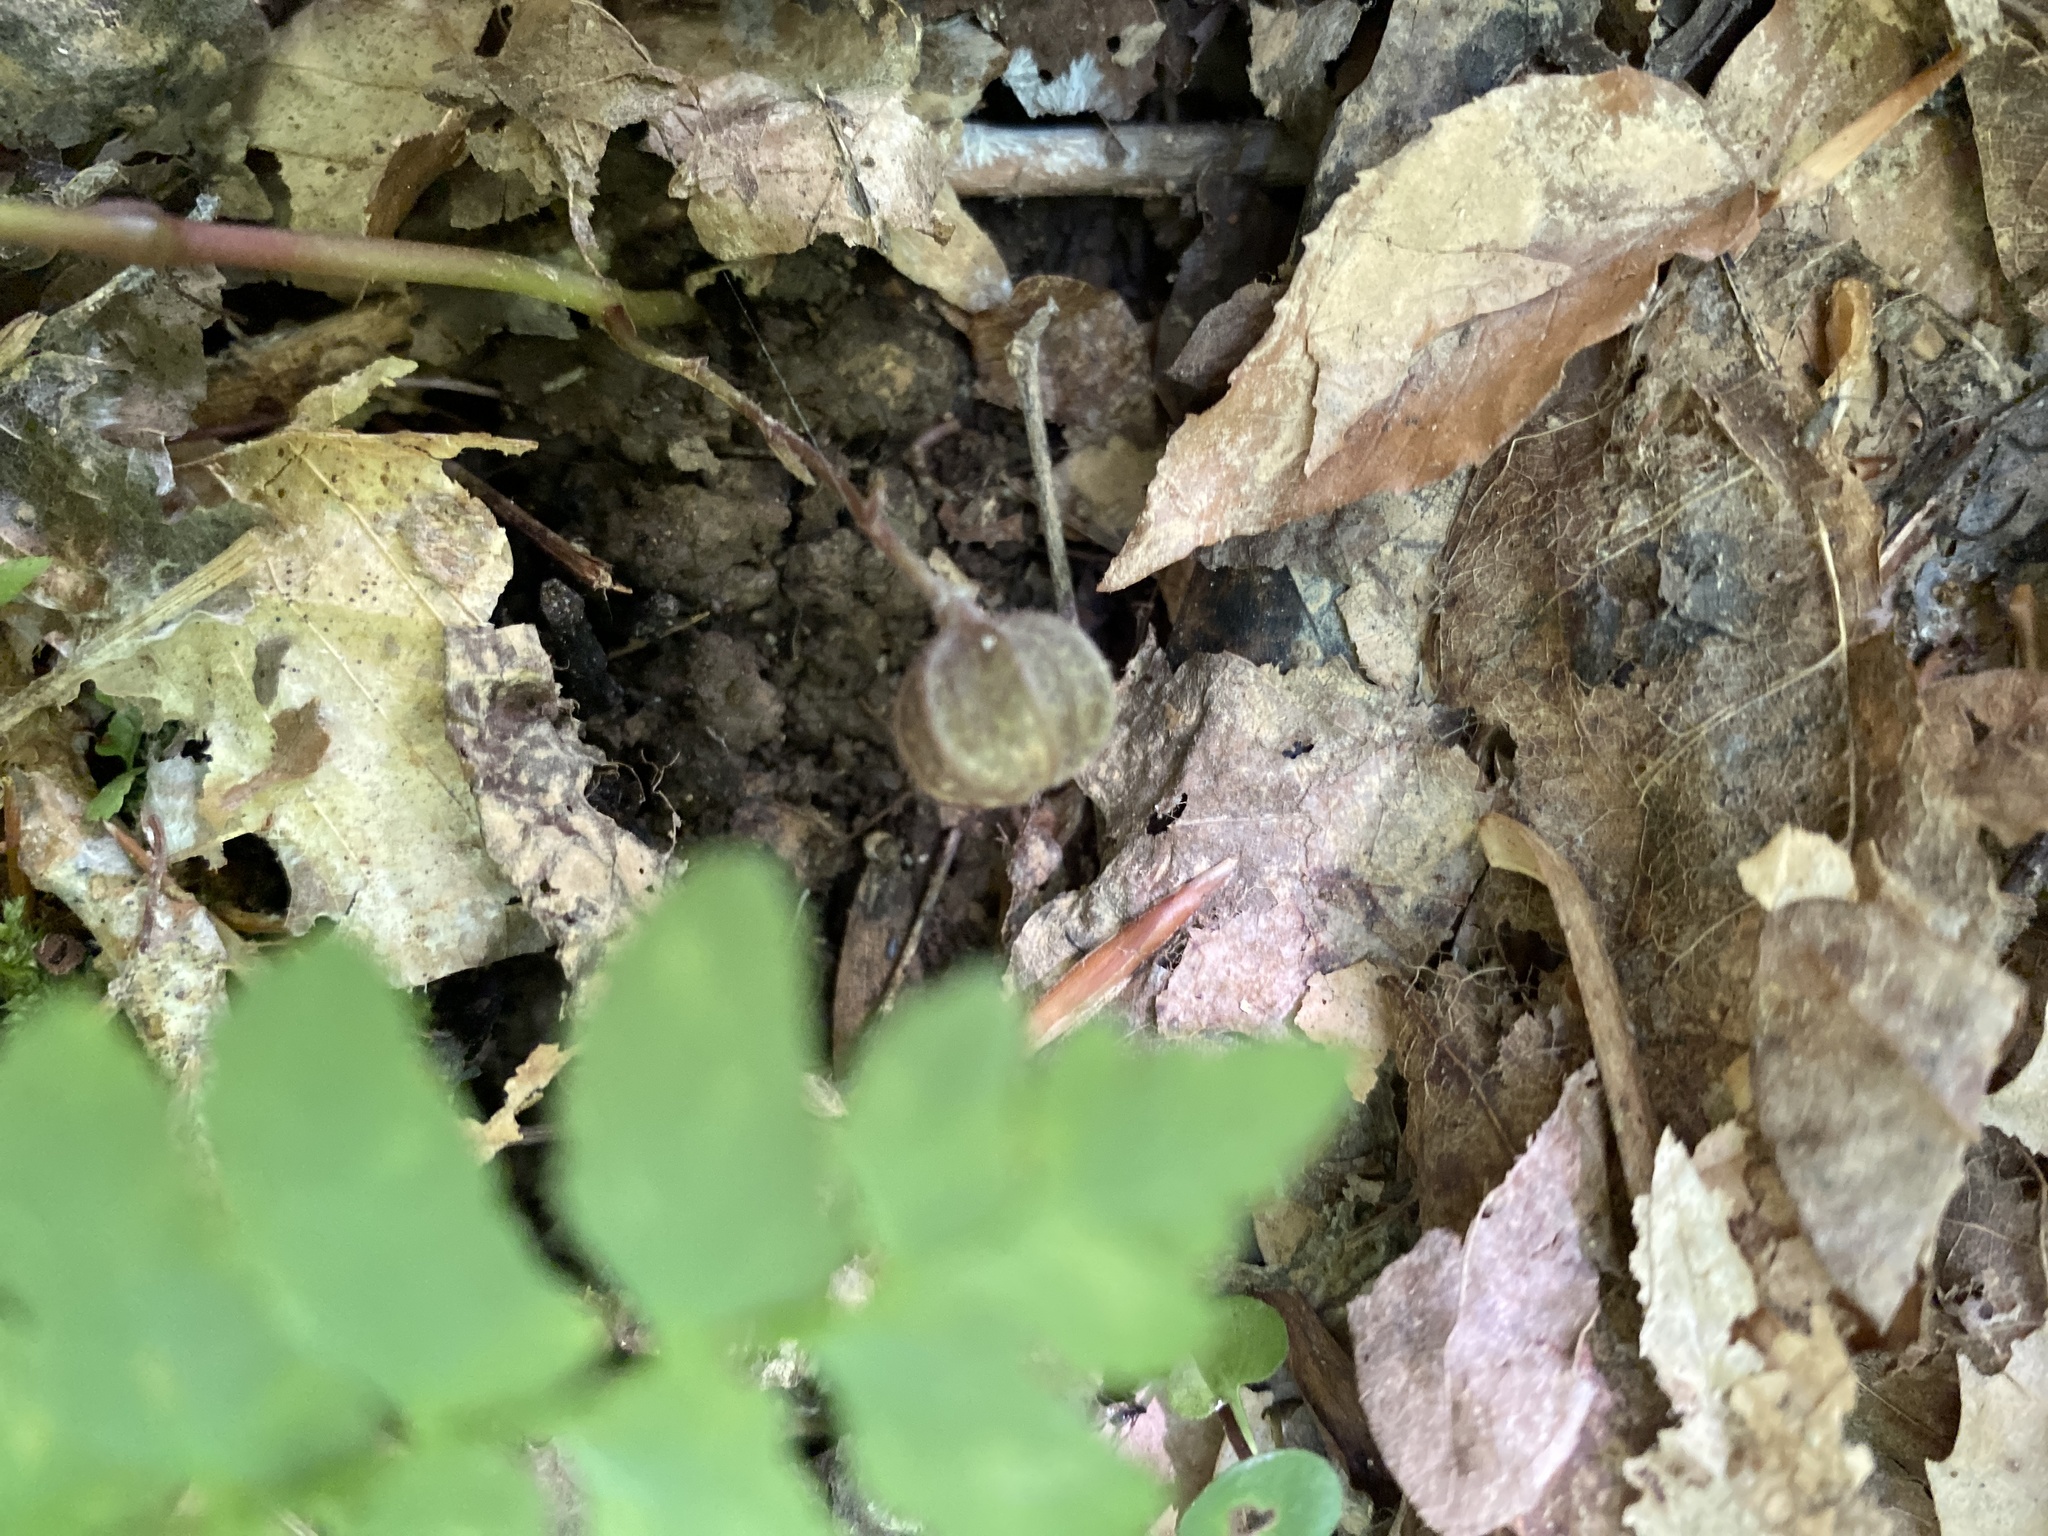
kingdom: Plantae
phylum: Tracheophyta
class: Magnoliopsida
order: Piperales
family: Aristolochiaceae
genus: Endodeca
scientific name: Endodeca serpentaria
